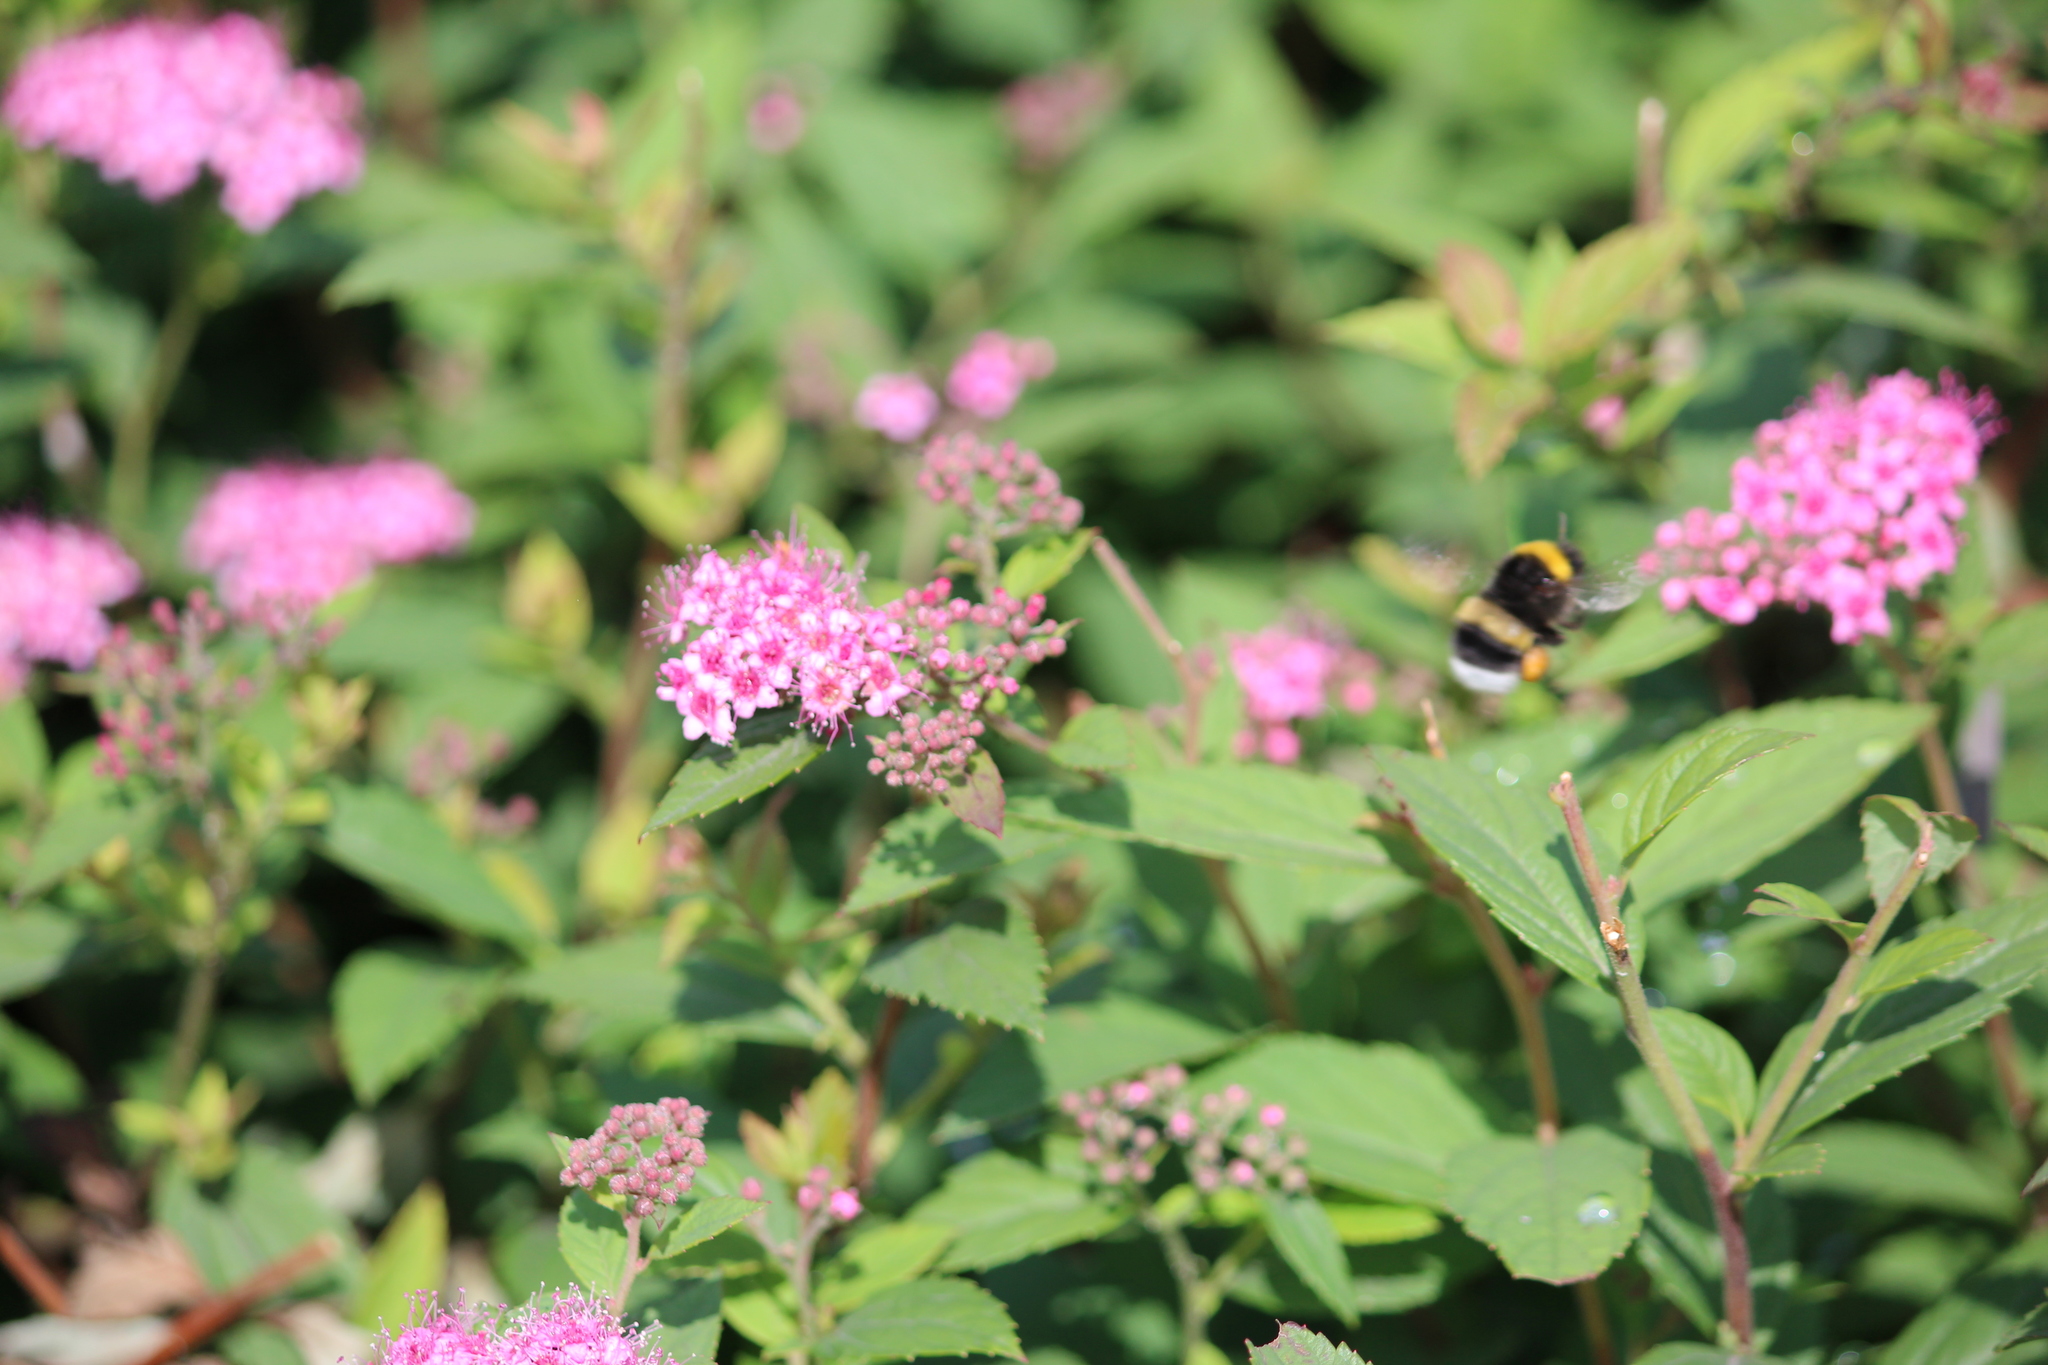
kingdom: Animalia
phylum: Arthropoda
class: Insecta
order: Hymenoptera
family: Apidae
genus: Bombus
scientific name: Bombus
